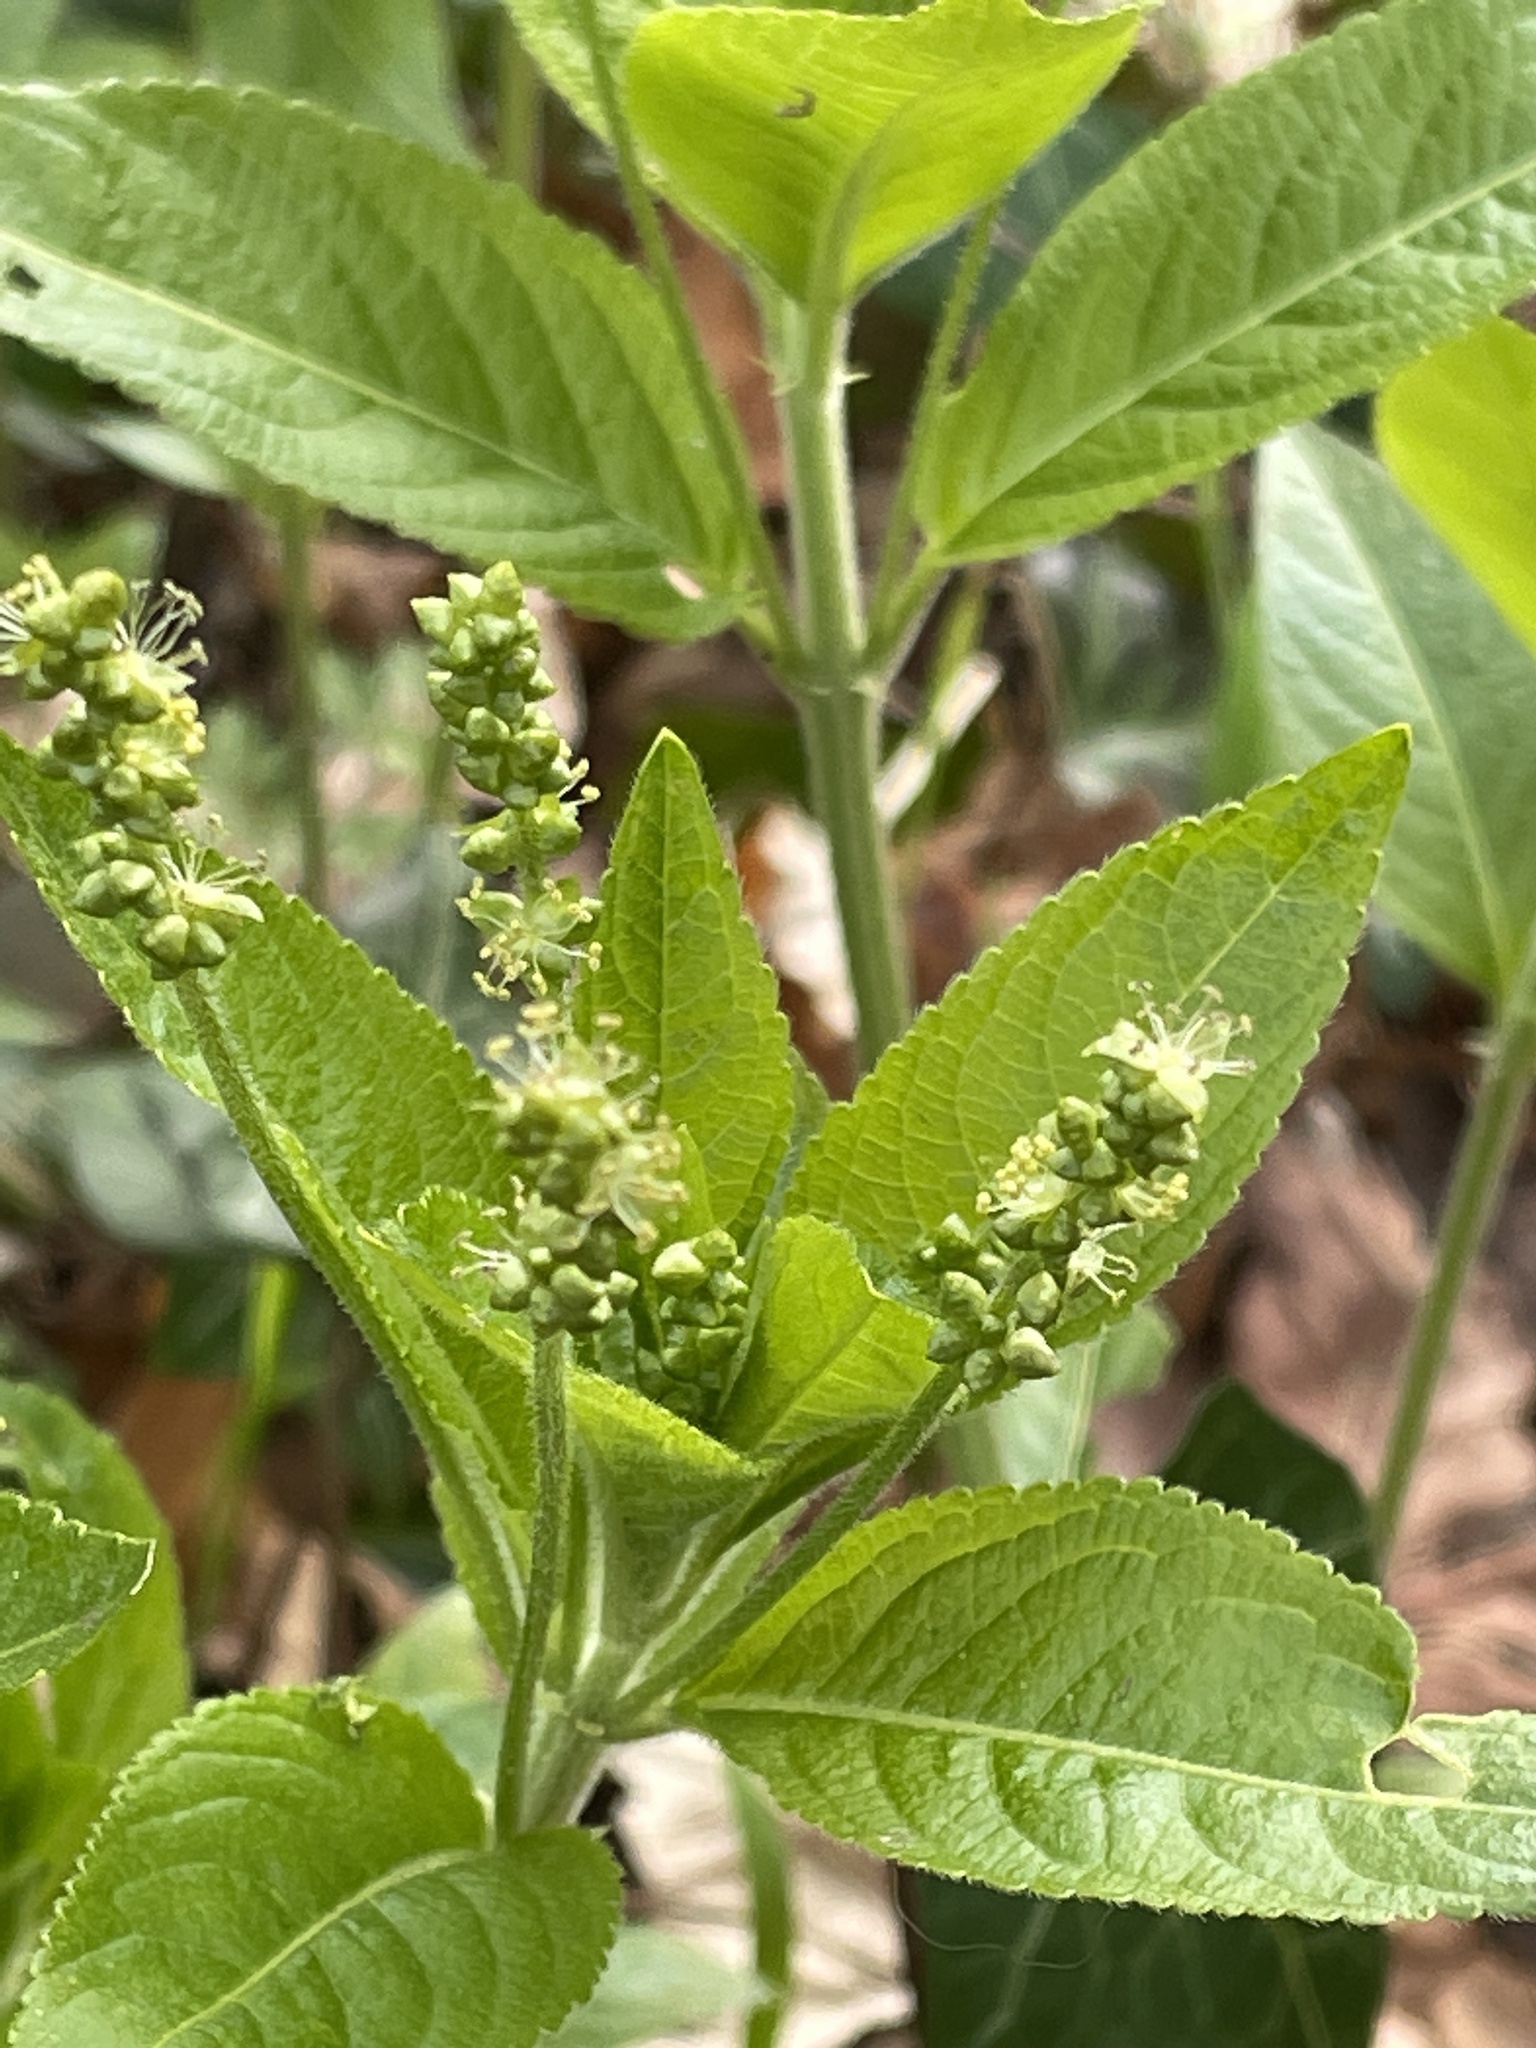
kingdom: Plantae
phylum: Tracheophyta
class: Magnoliopsida
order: Malpighiales
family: Euphorbiaceae
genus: Mercurialis
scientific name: Mercurialis perennis
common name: Dog mercury
